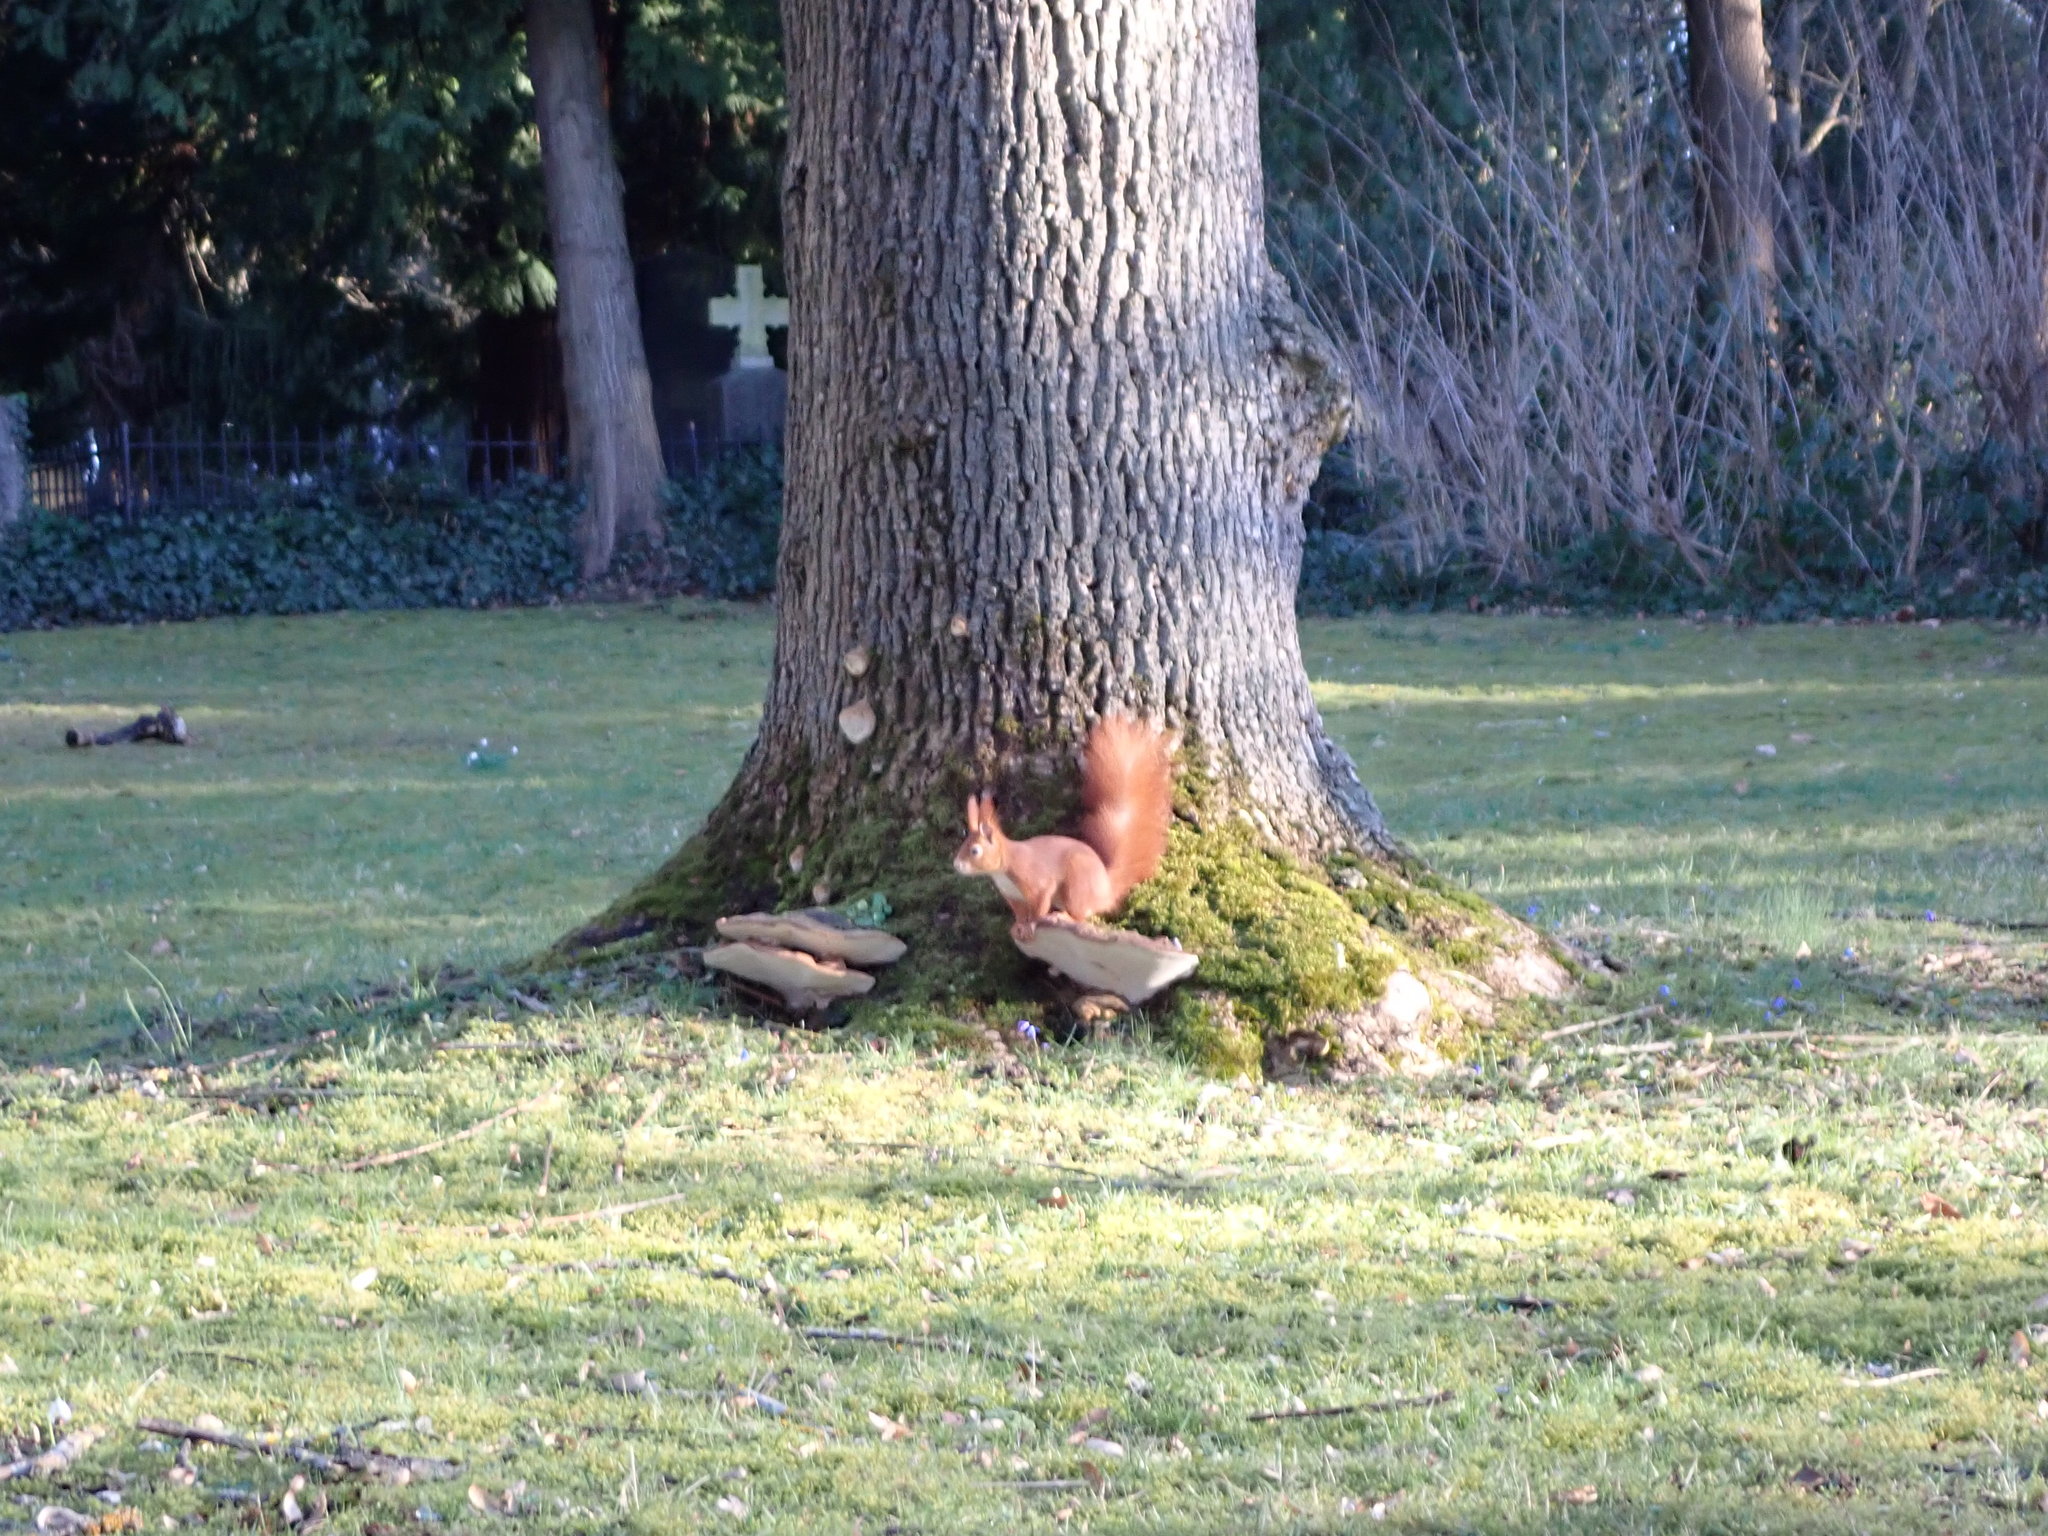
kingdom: Animalia
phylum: Chordata
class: Mammalia
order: Rodentia
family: Sciuridae
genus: Sciurus
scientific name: Sciurus vulgaris
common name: Eurasian red squirrel
